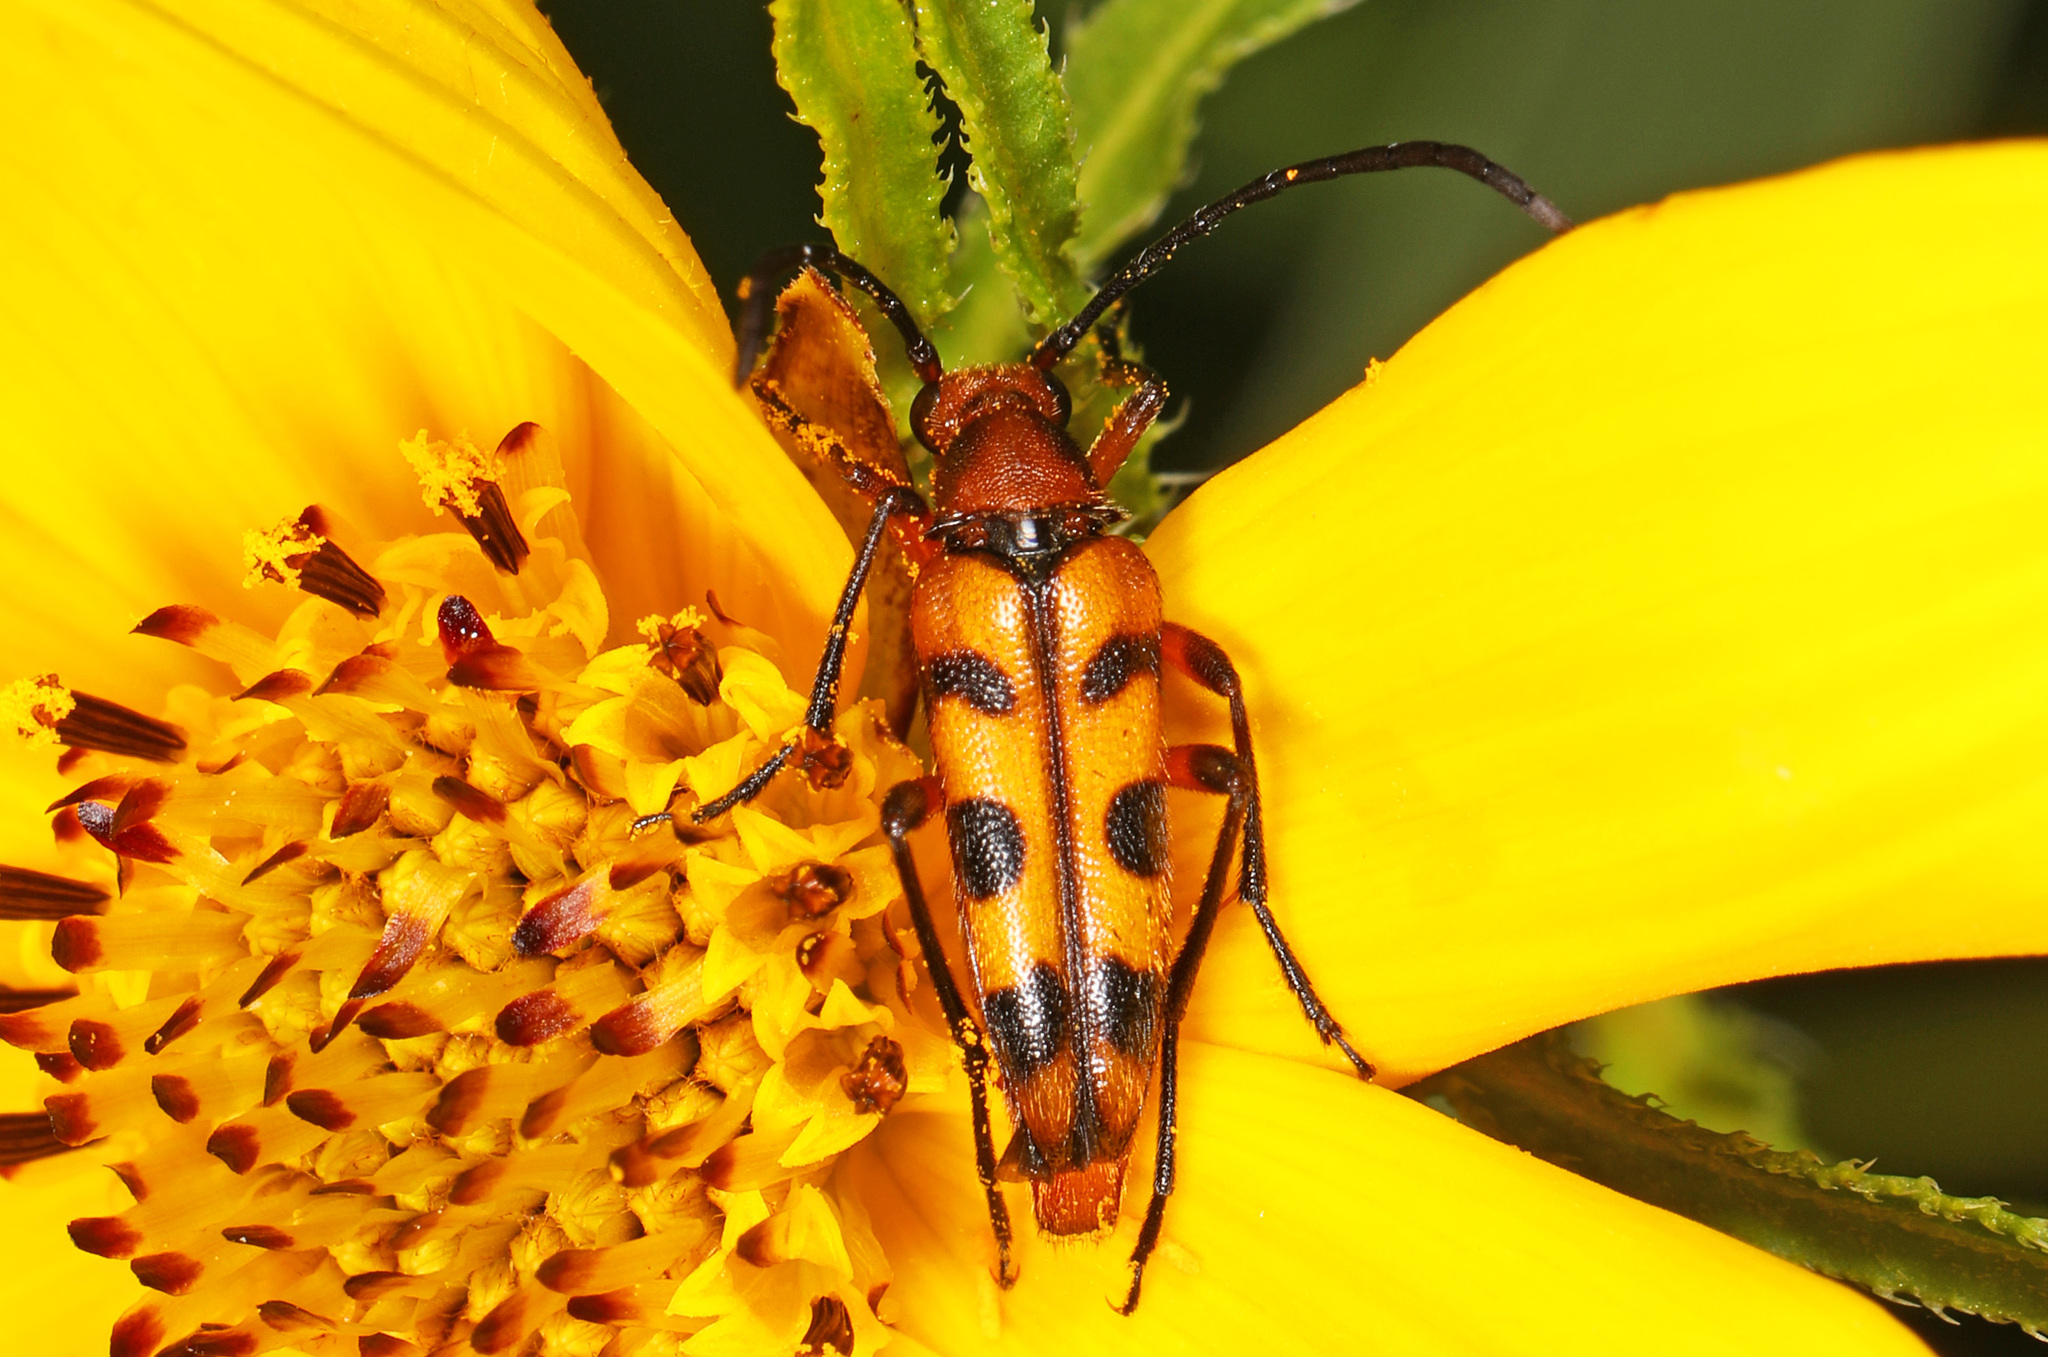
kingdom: Animalia
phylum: Arthropoda
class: Insecta
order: Coleoptera
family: Cerambycidae
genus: Strangalia
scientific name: Strangalia sexnotata
